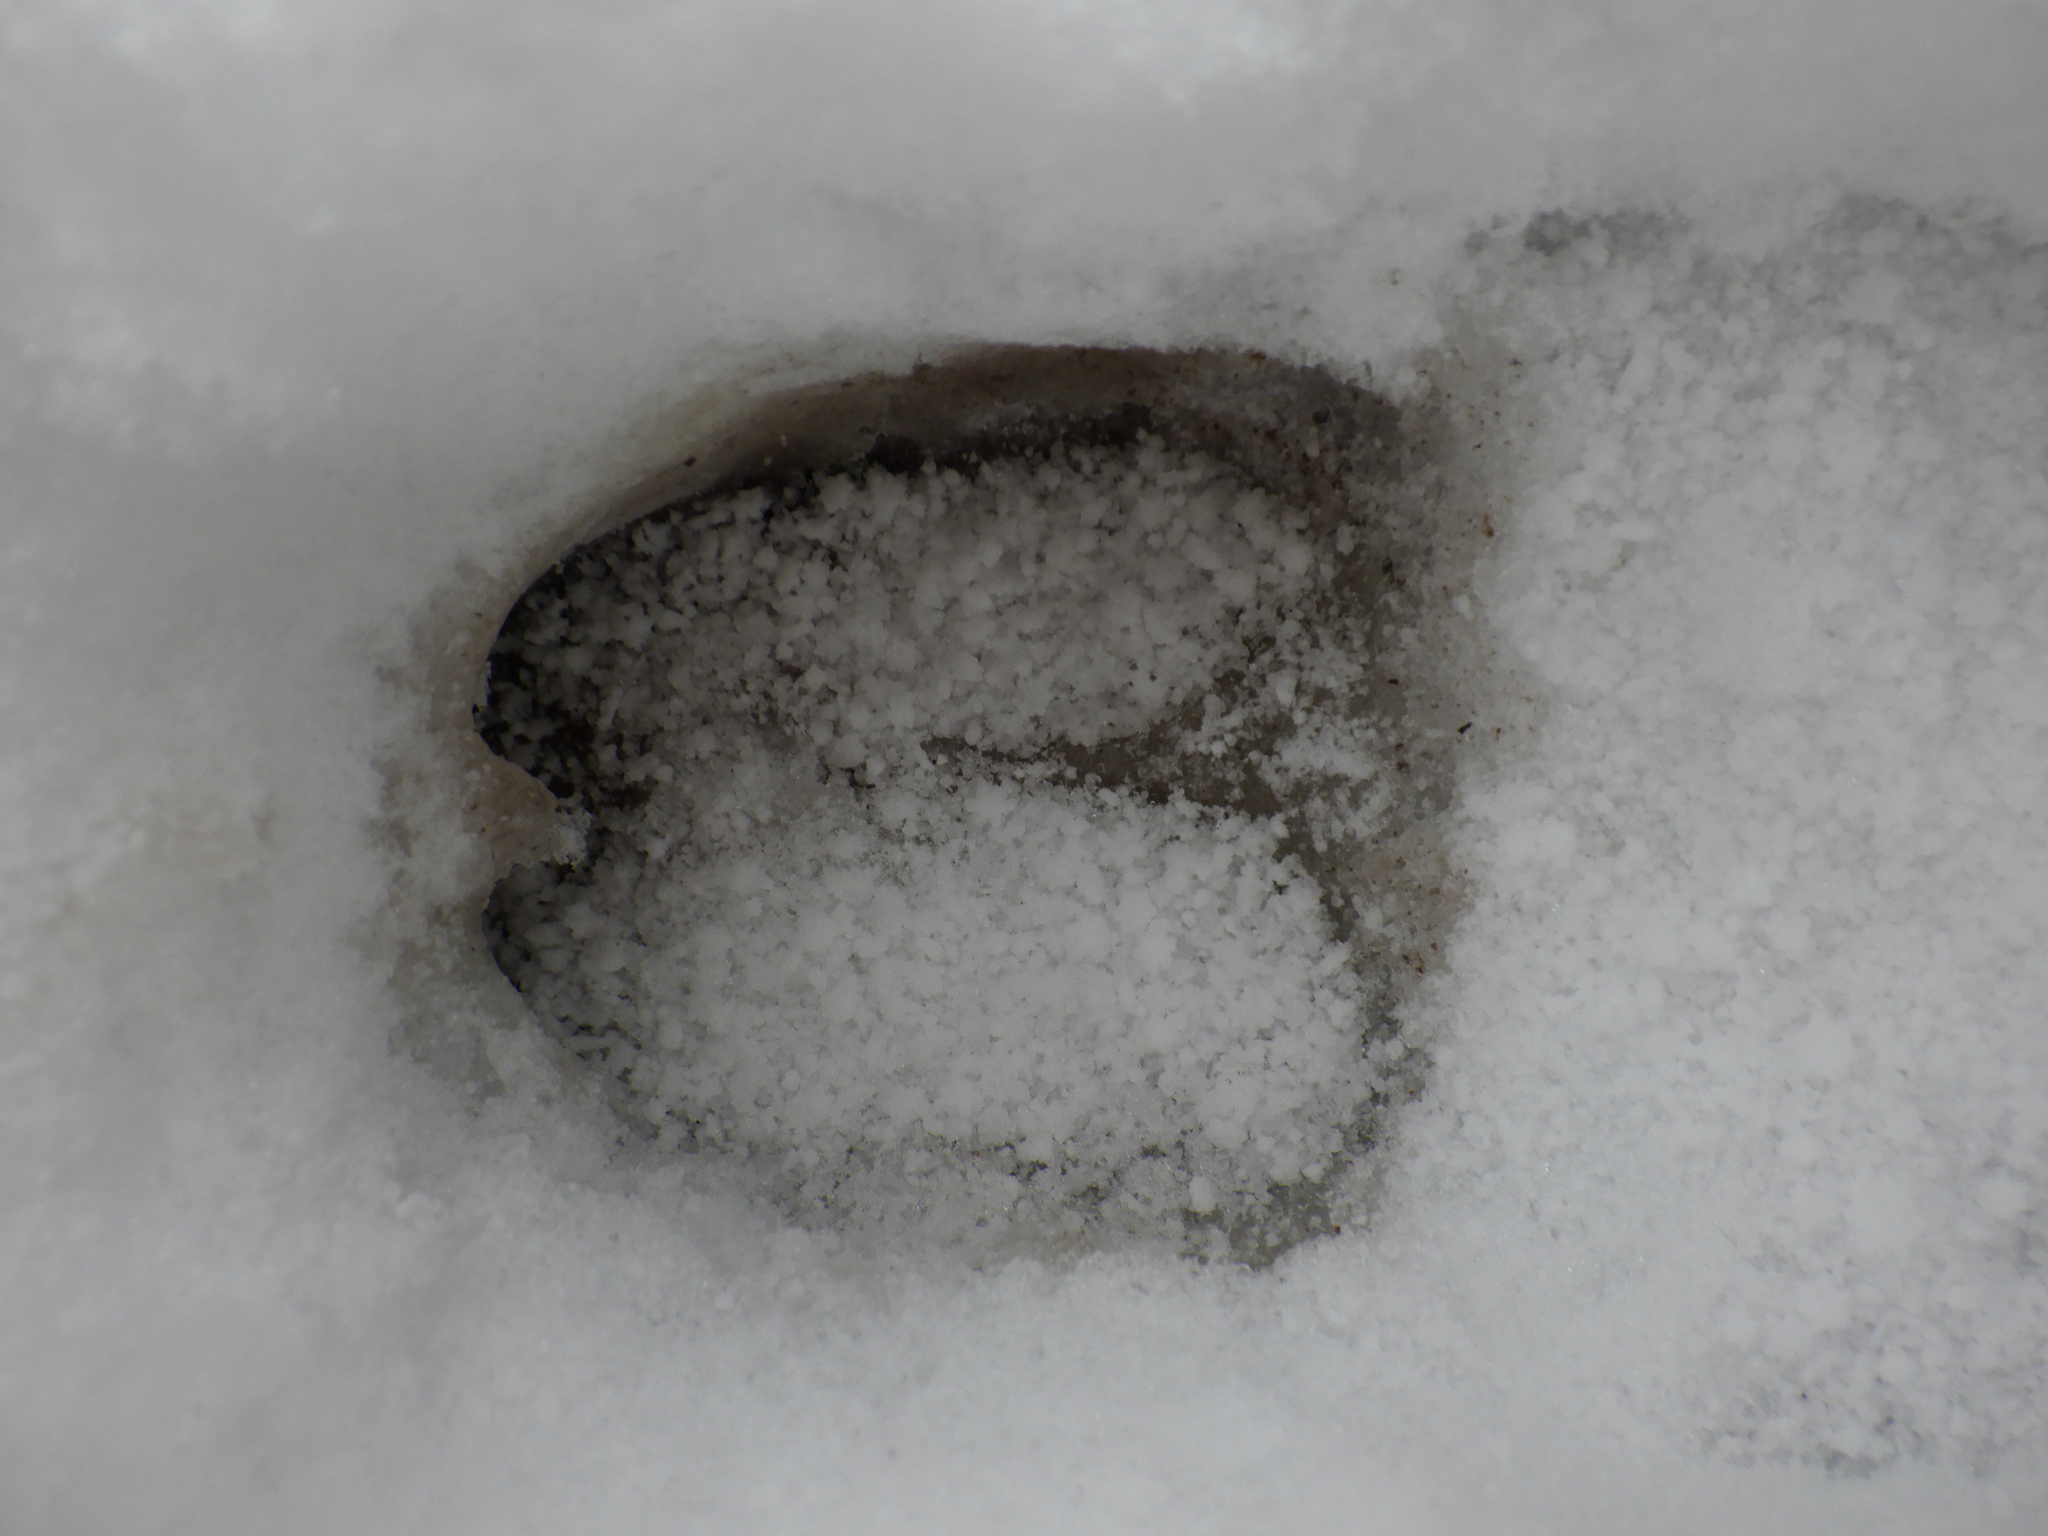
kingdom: Animalia
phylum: Chordata
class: Mammalia
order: Artiodactyla
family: Cervidae
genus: Odocoileus
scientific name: Odocoileus virginianus
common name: White-tailed deer
